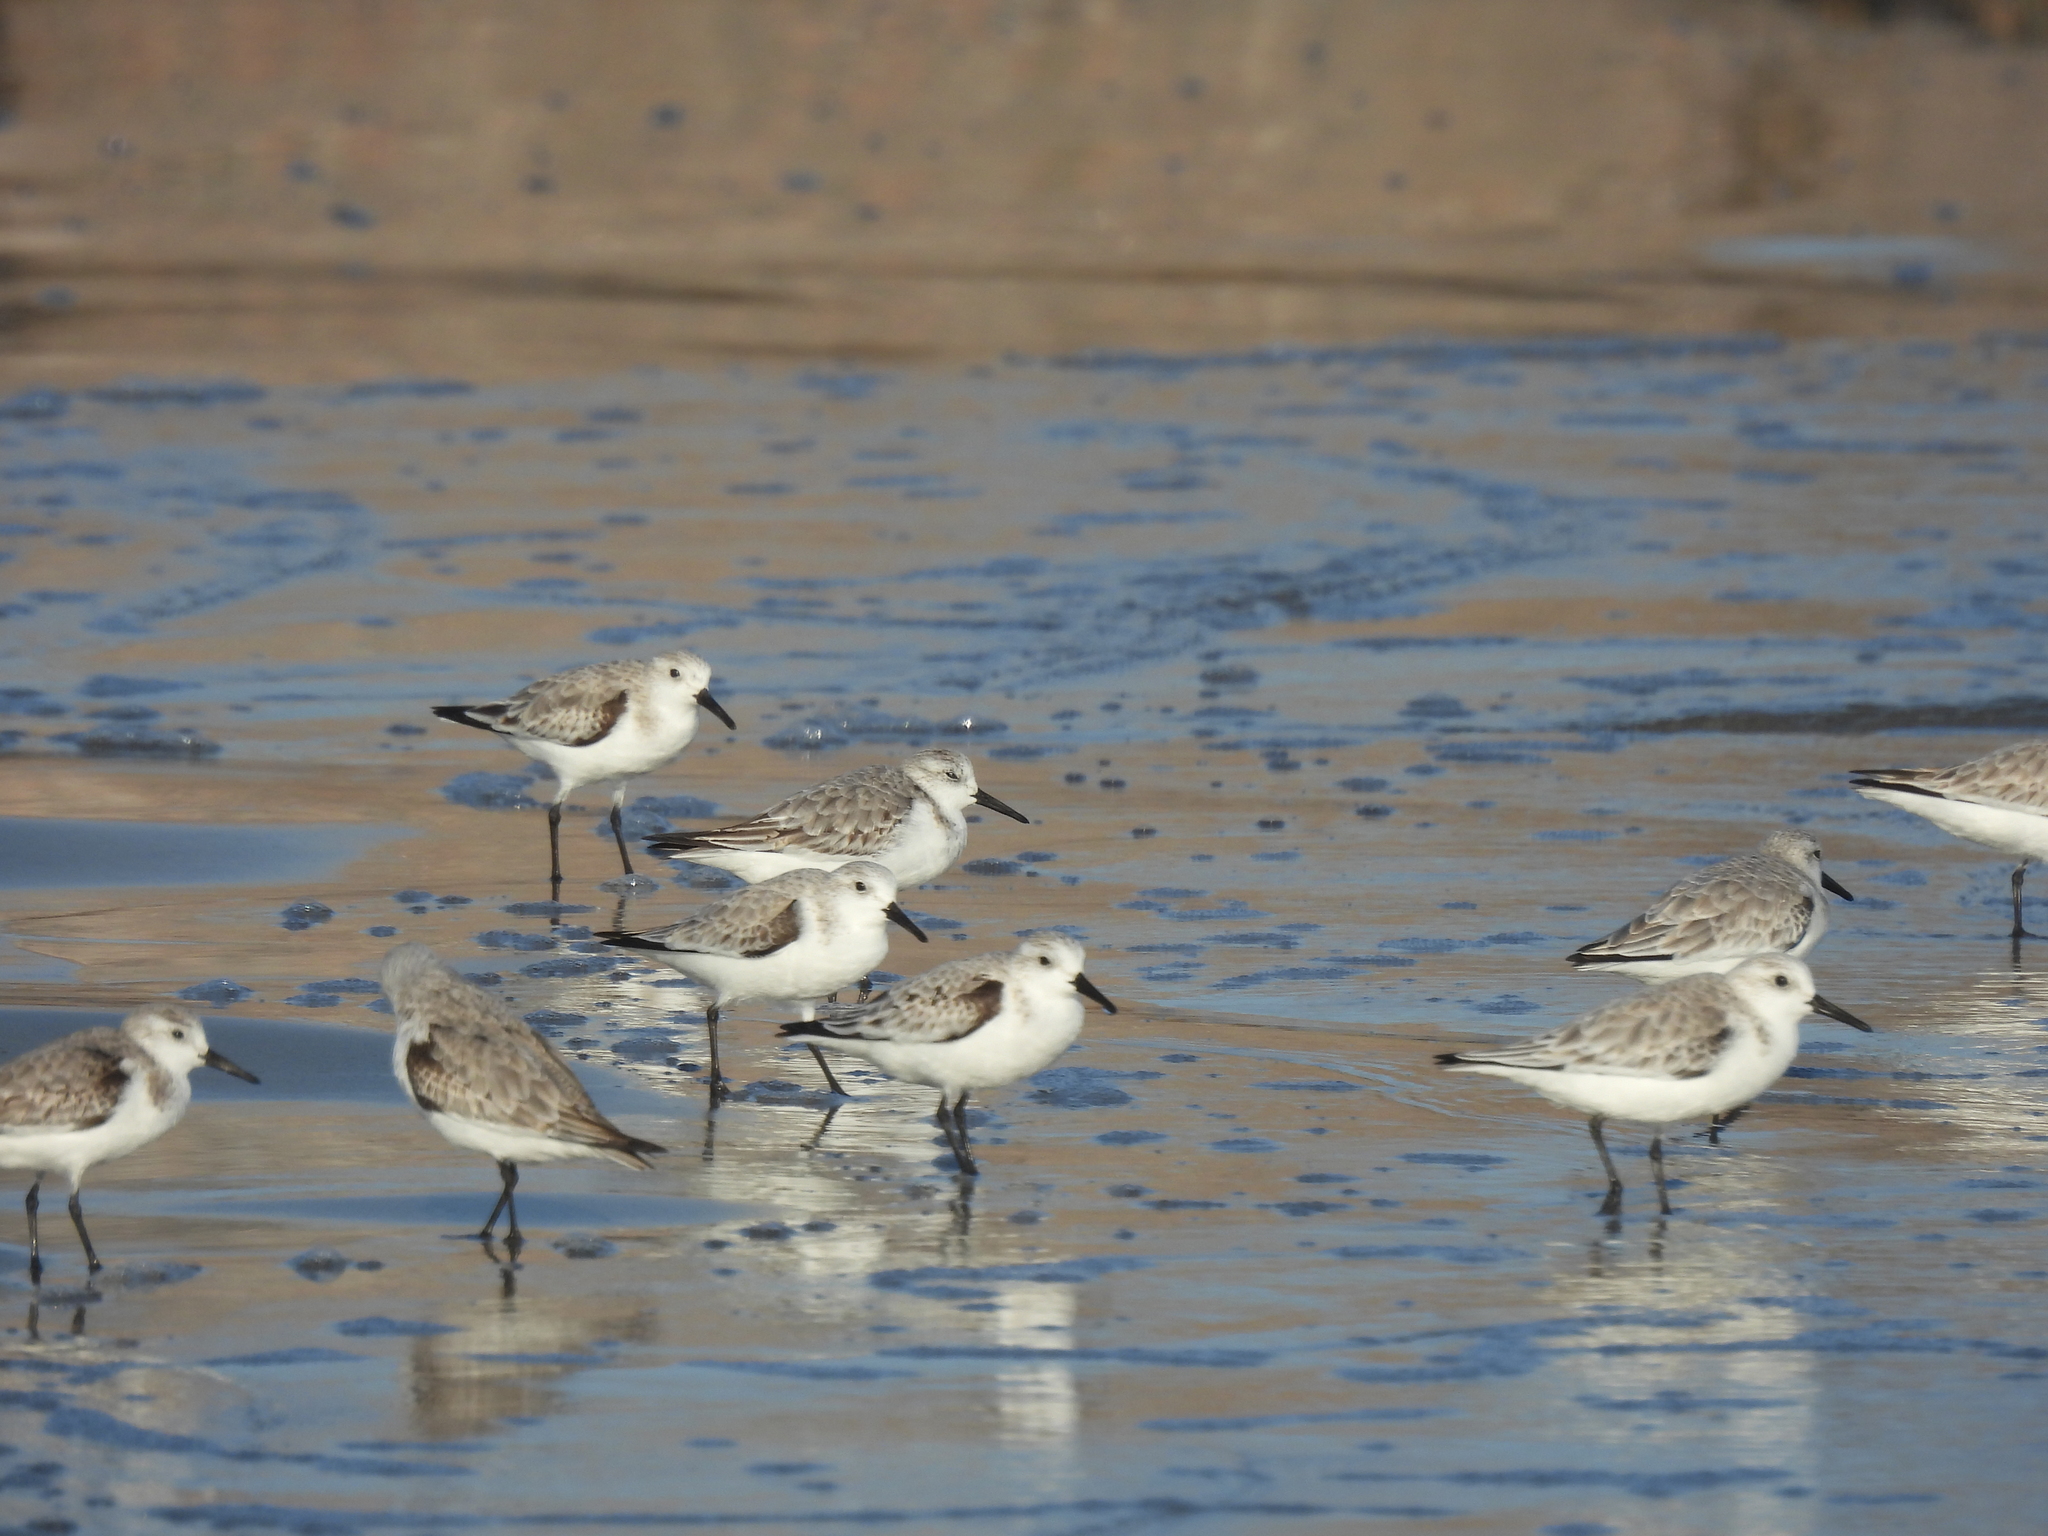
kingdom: Animalia
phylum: Chordata
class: Aves
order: Charadriiformes
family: Scolopacidae
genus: Calidris
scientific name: Calidris alba
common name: Sanderling
